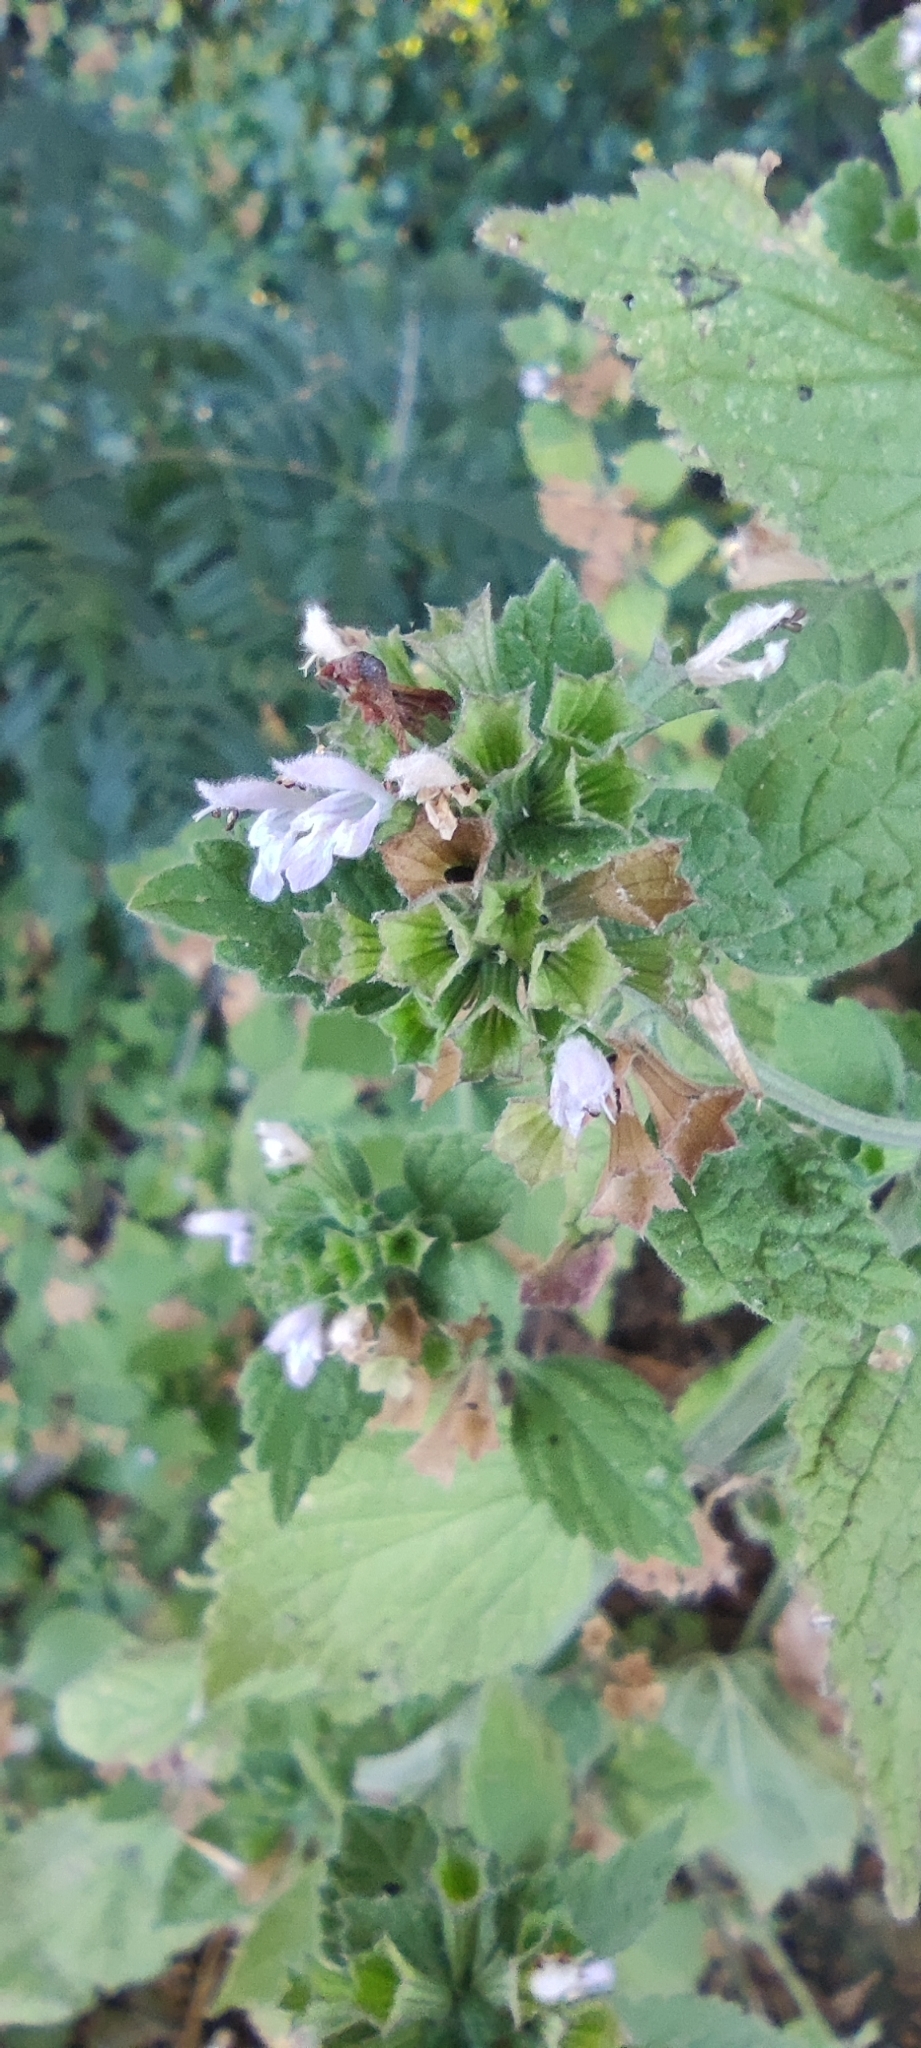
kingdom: Plantae
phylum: Tracheophyta
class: Magnoliopsida
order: Lamiales
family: Lamiaceae
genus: Ballota
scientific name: Ballota nigra
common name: Black horehound
